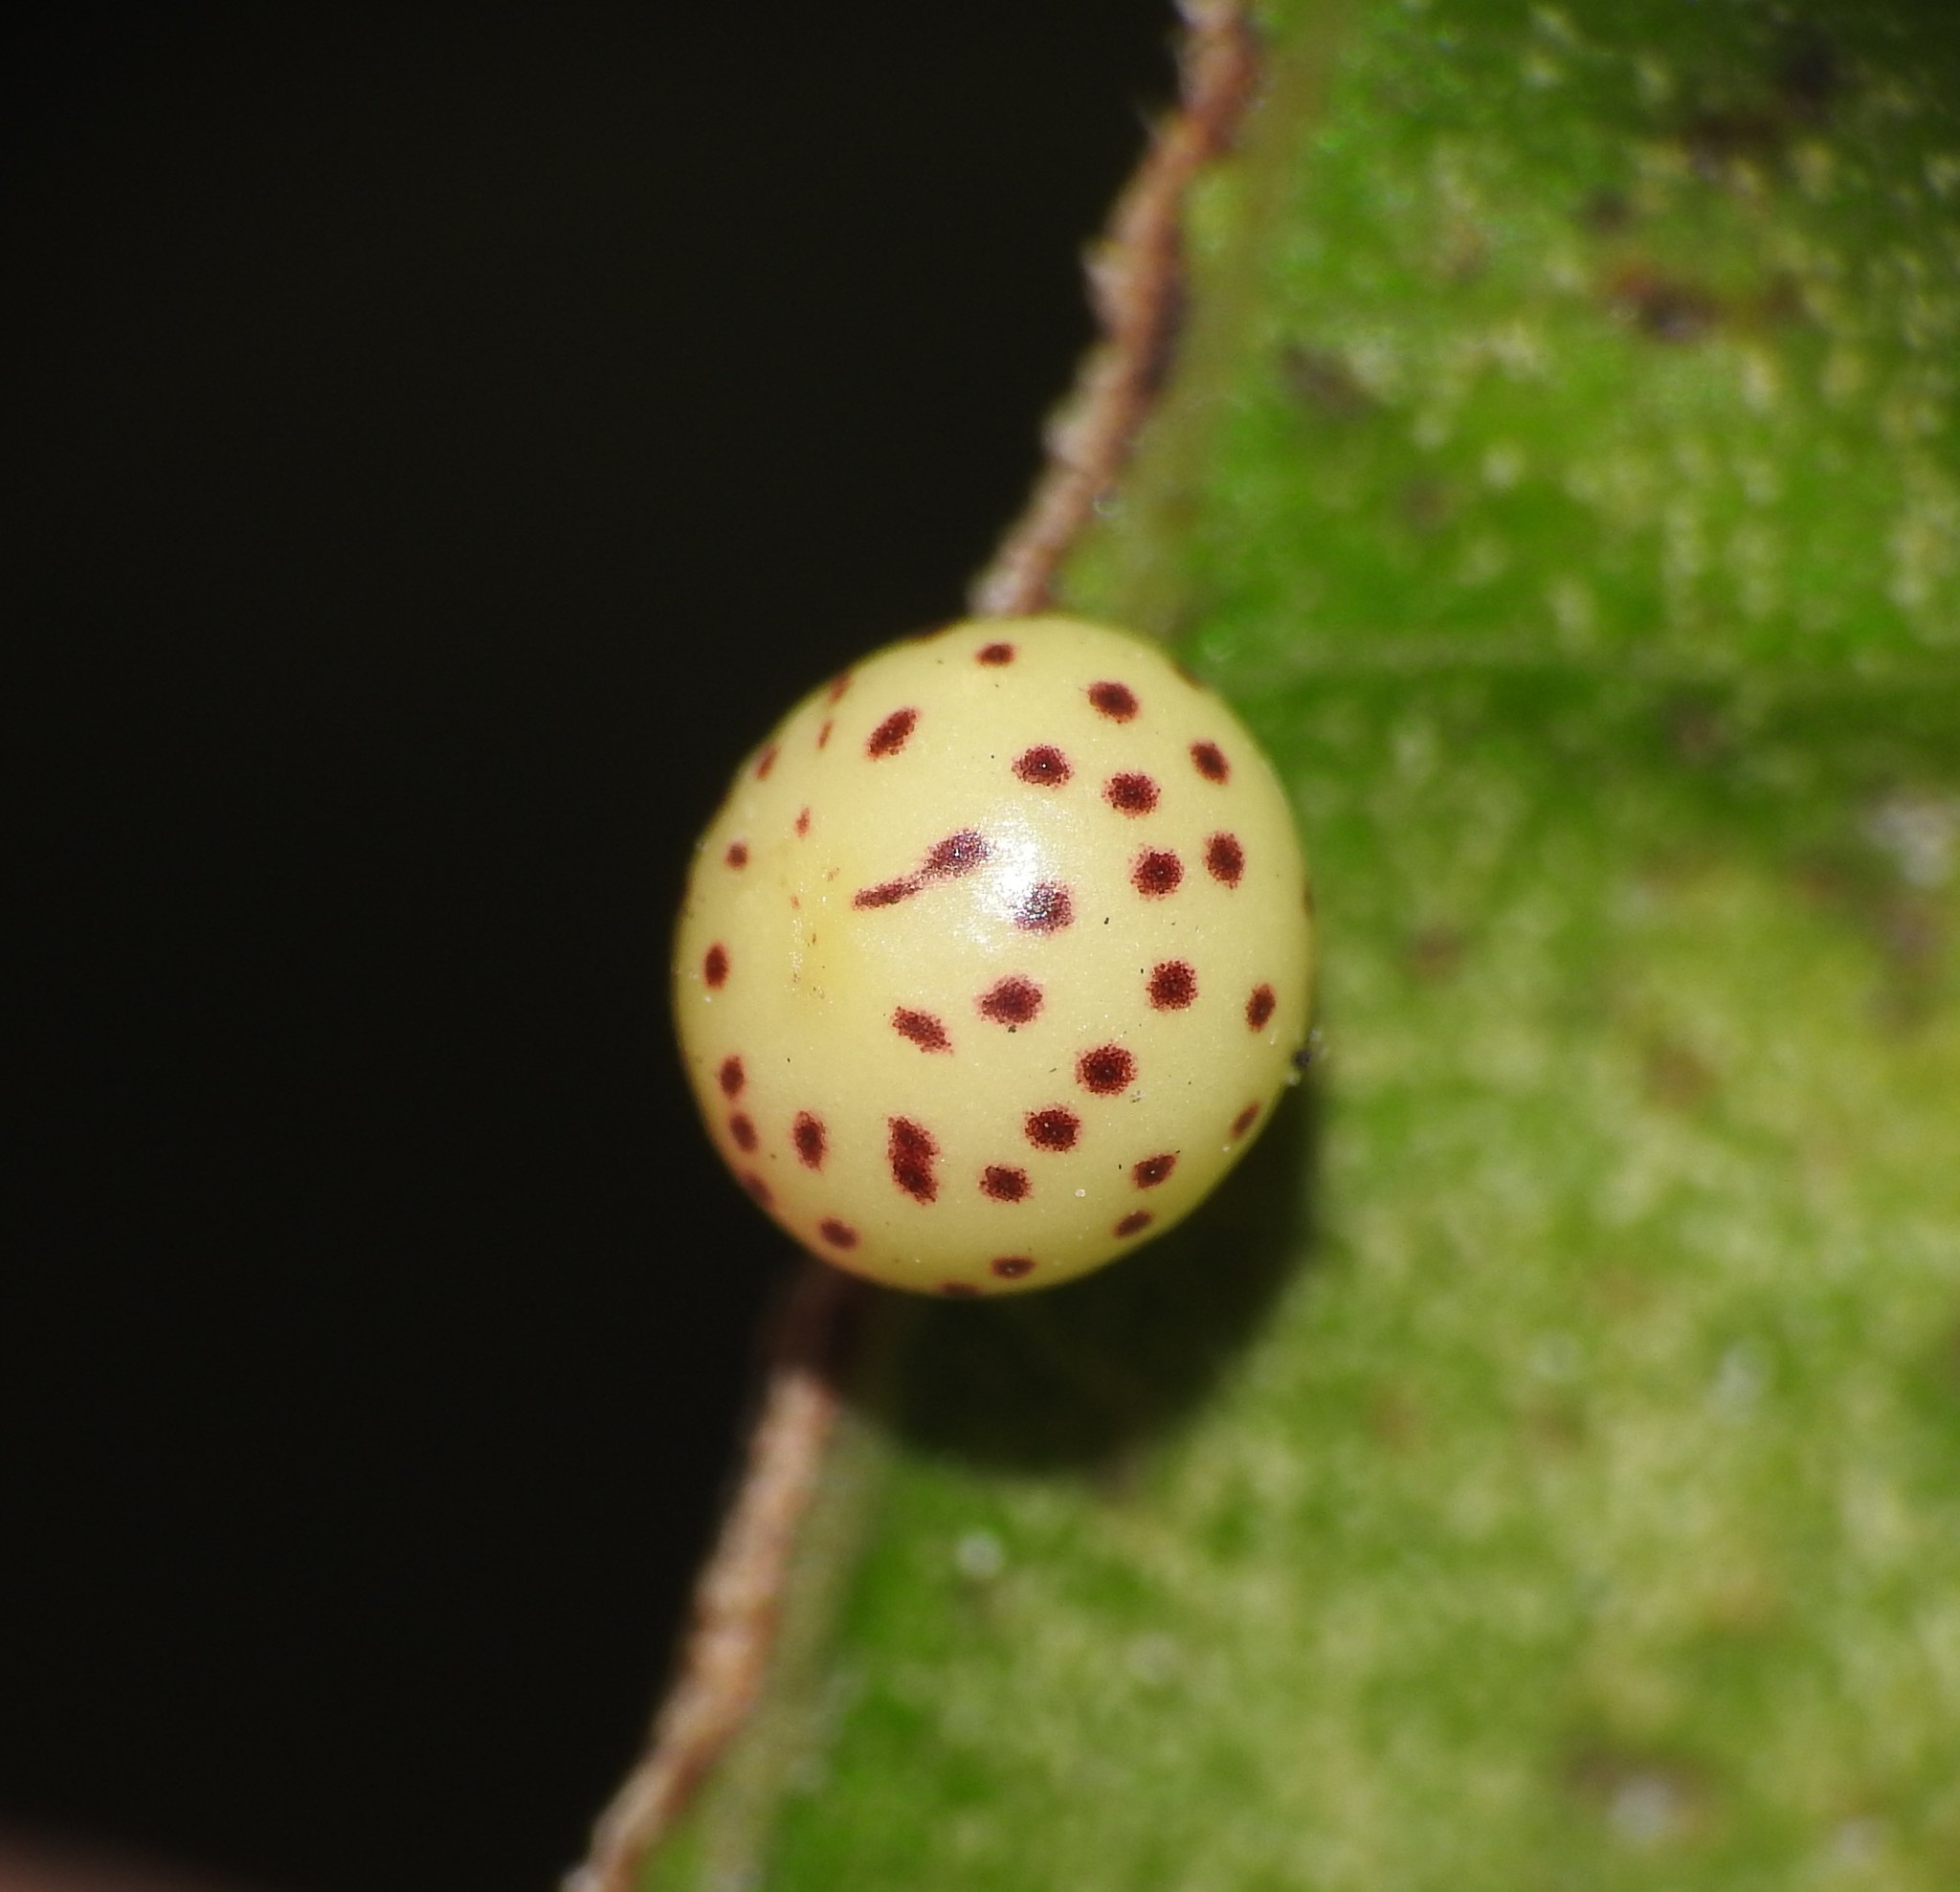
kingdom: Animalia
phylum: Arthropoda
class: Insecta
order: Hymenoptera
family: Cynipidae
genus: Zopheroteras
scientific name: Zopheroteras
